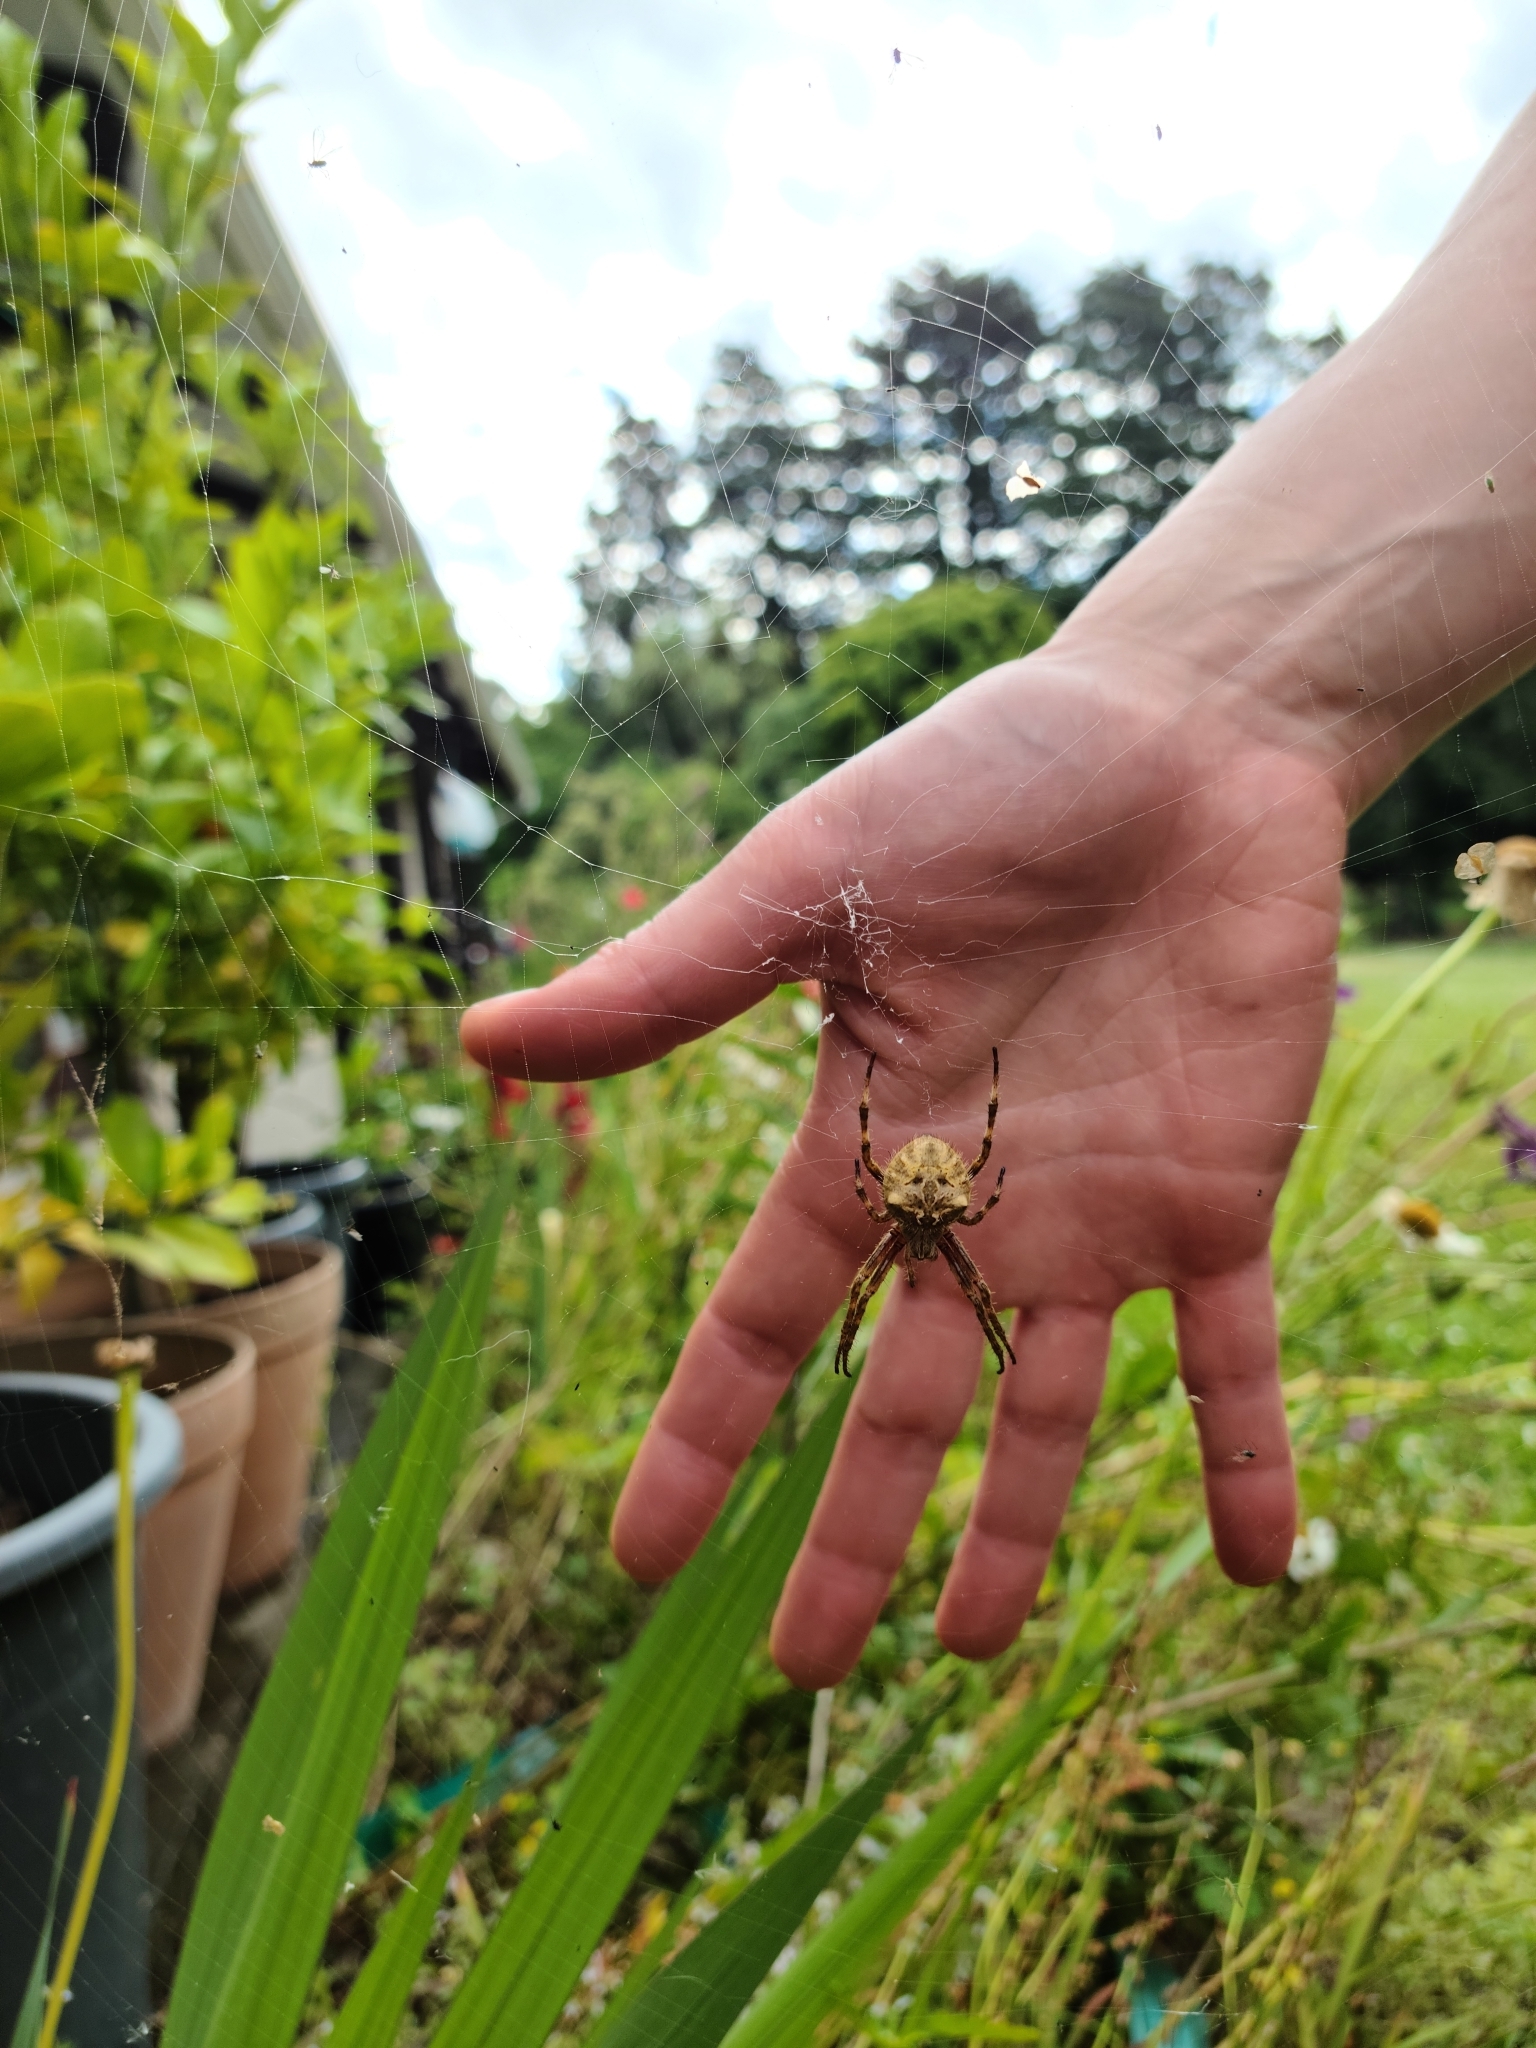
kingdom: Animalia
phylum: Arthropoda
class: Arachnida
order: Araneae
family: Araneidae
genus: Backobourkia
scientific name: Backobourkia brouni
